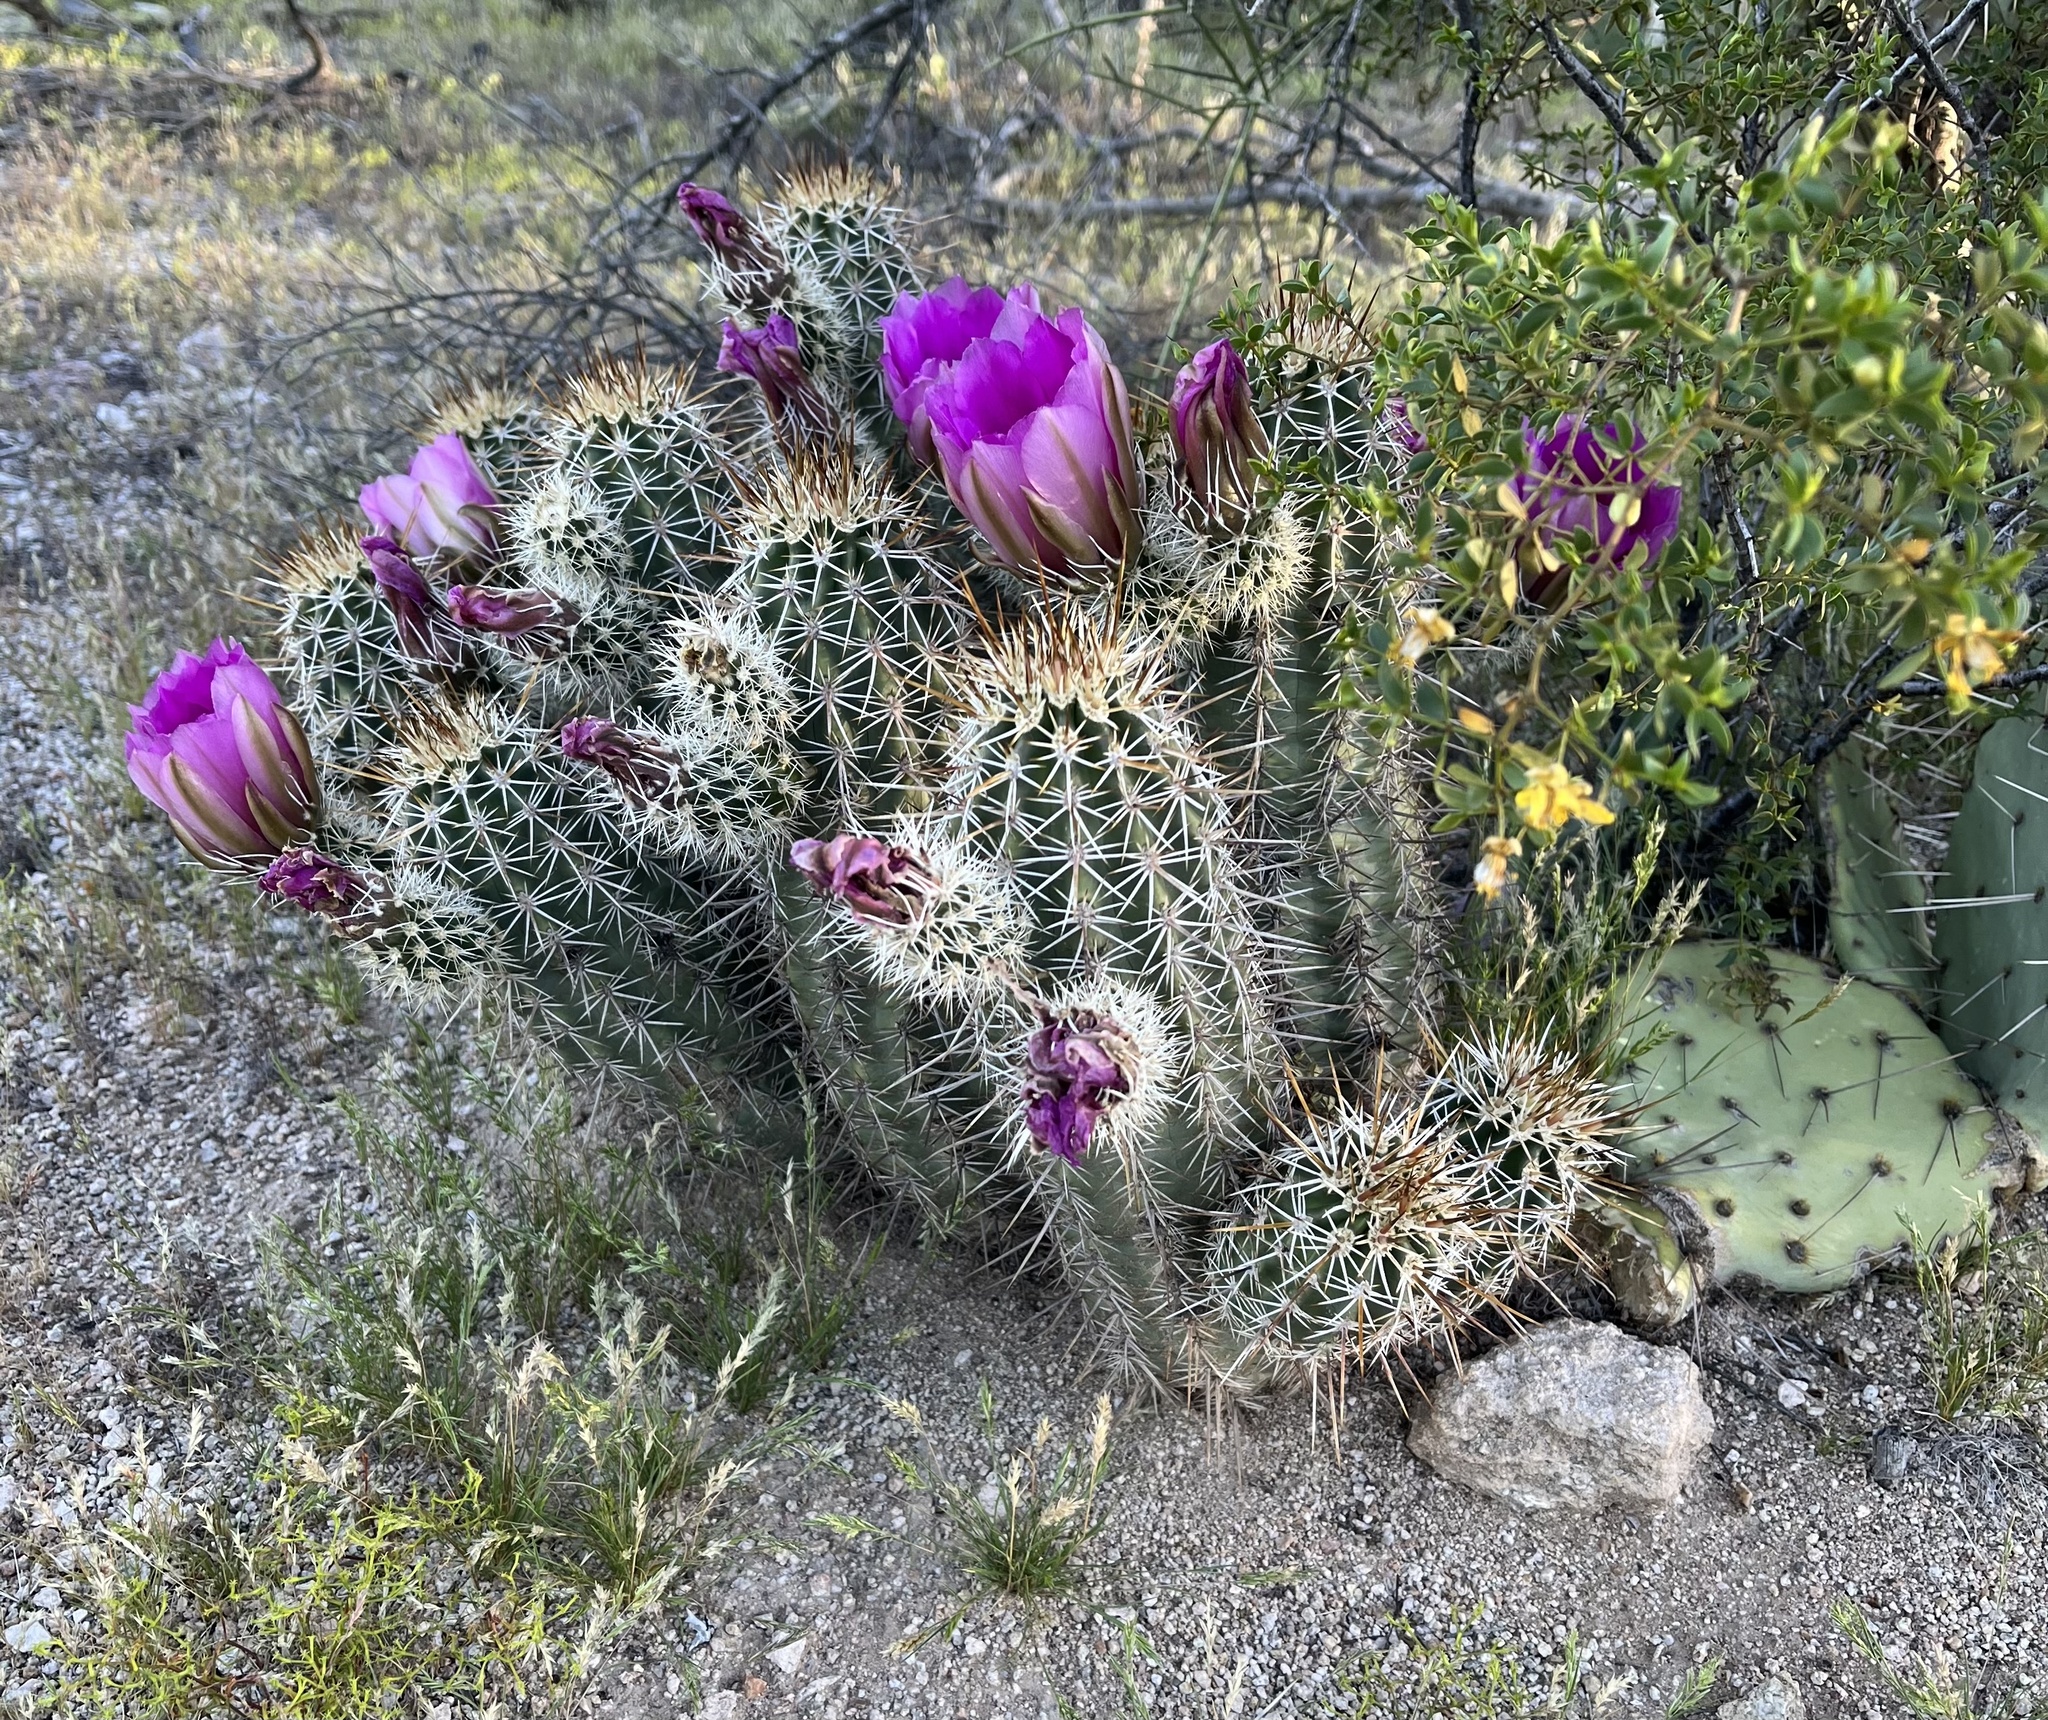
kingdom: Plantae
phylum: Tracheophyta
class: Magnoliopsida
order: Caryophyllales
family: Cactaceae
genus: Echinocereus
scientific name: Echinocereus fasciculatus
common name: Bundle hedgehog
